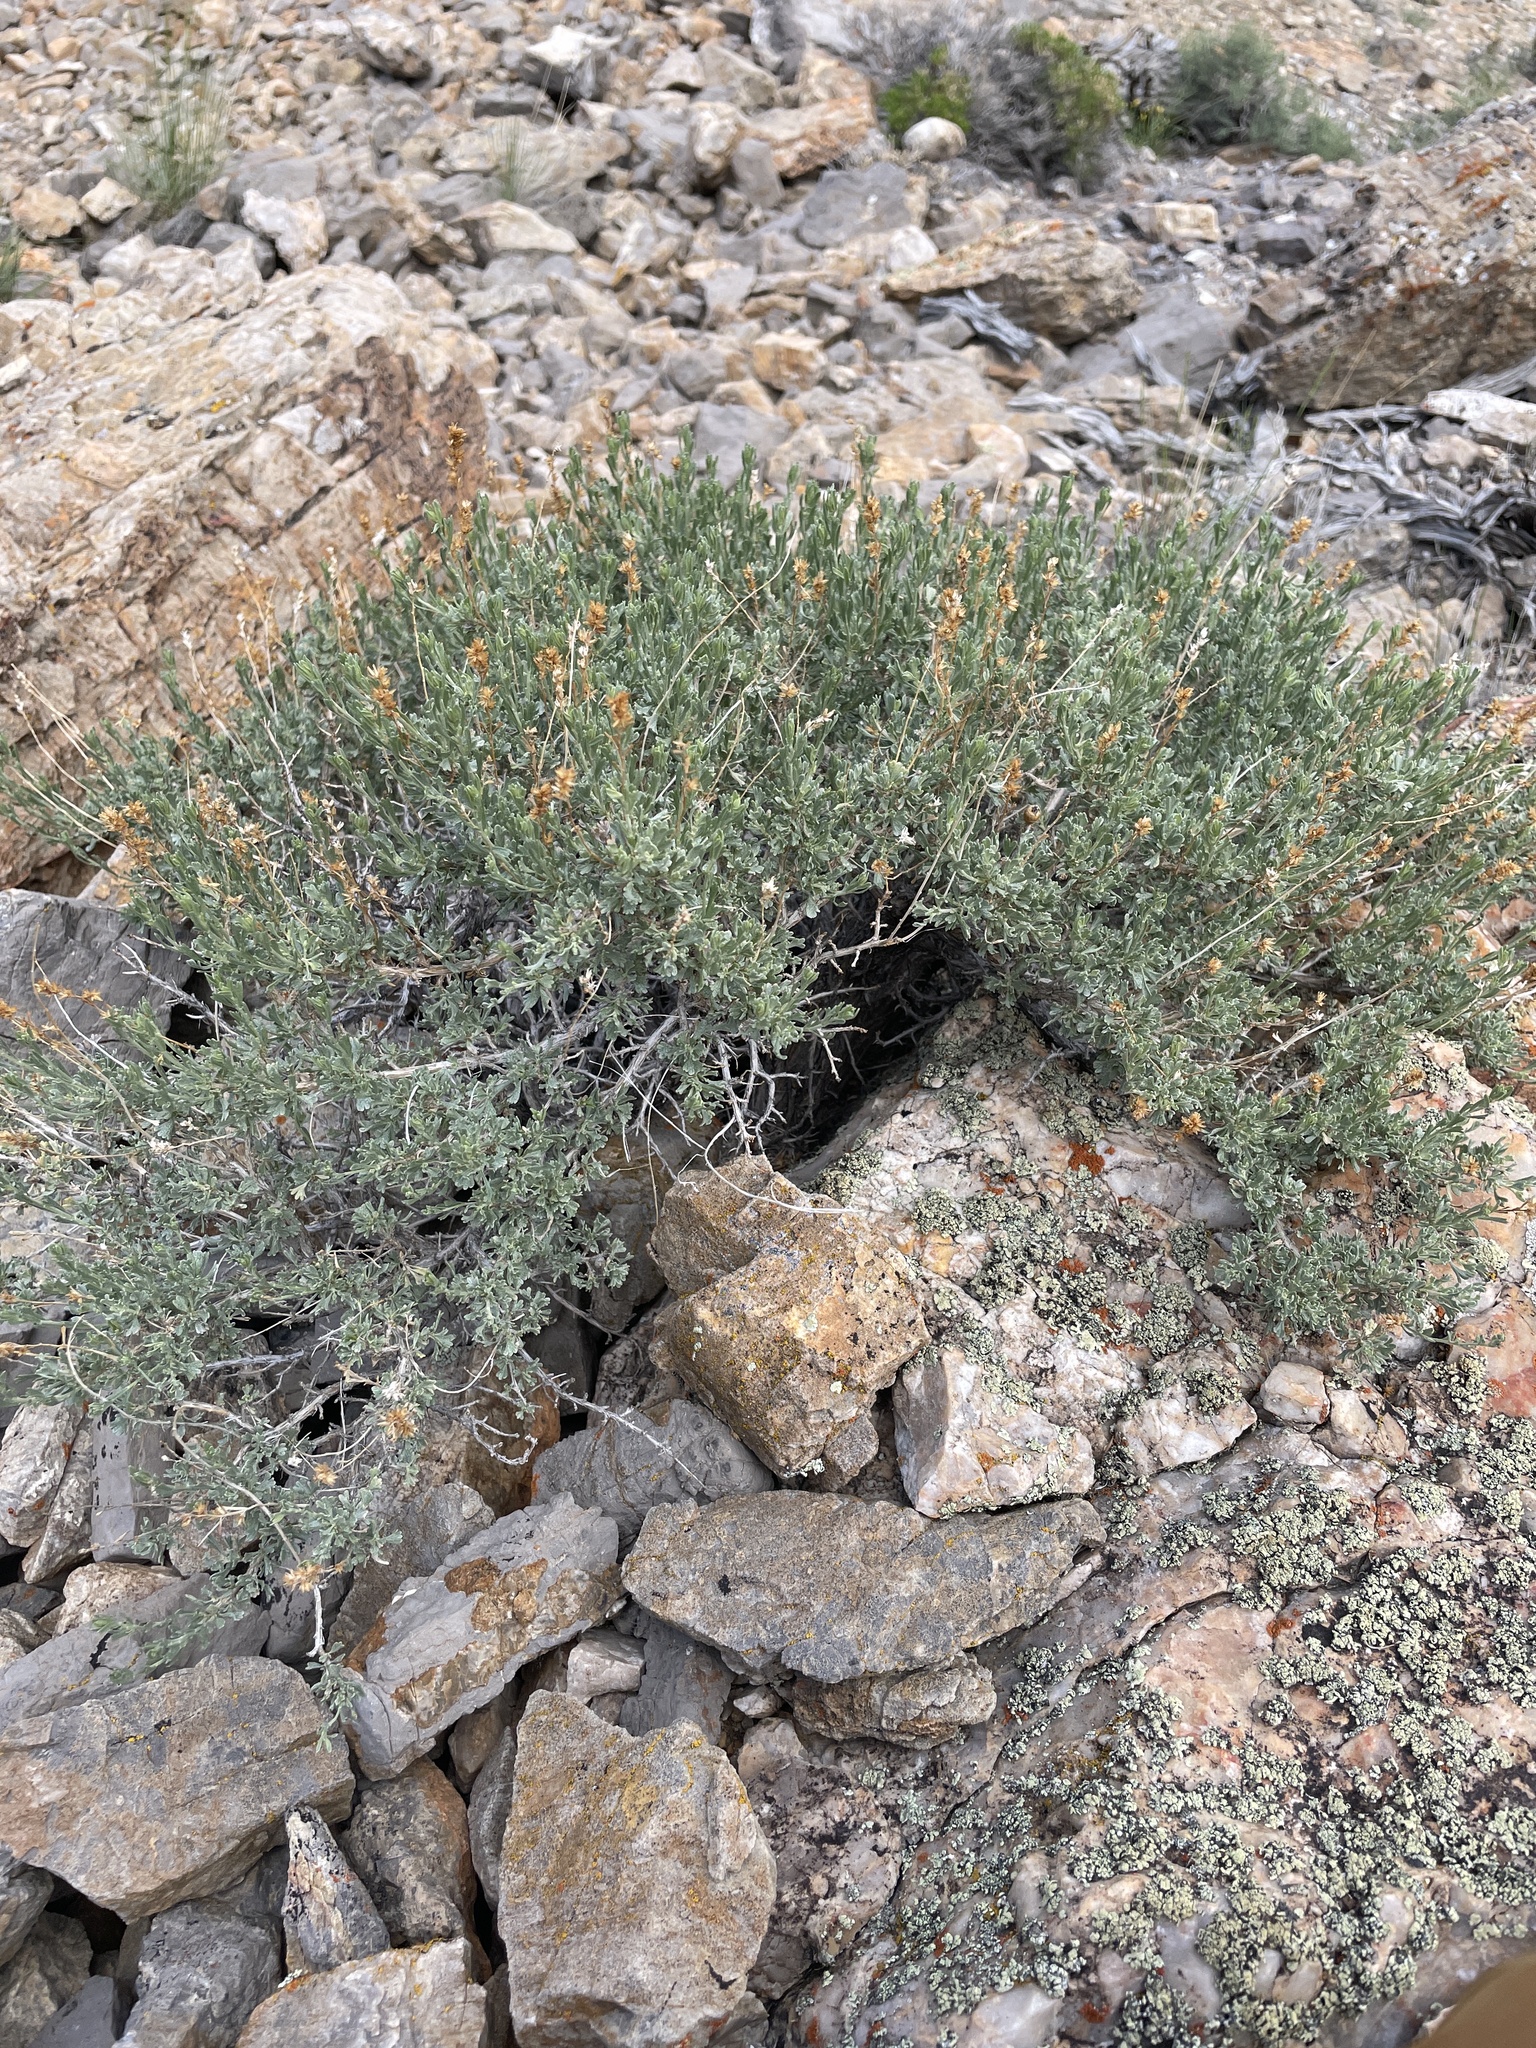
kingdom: Plantae
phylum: Tracheophyta
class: Magnoliopsida
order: Asterales
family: Asteraceae
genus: Artemisia
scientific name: Artemisia nova
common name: Black-sage
